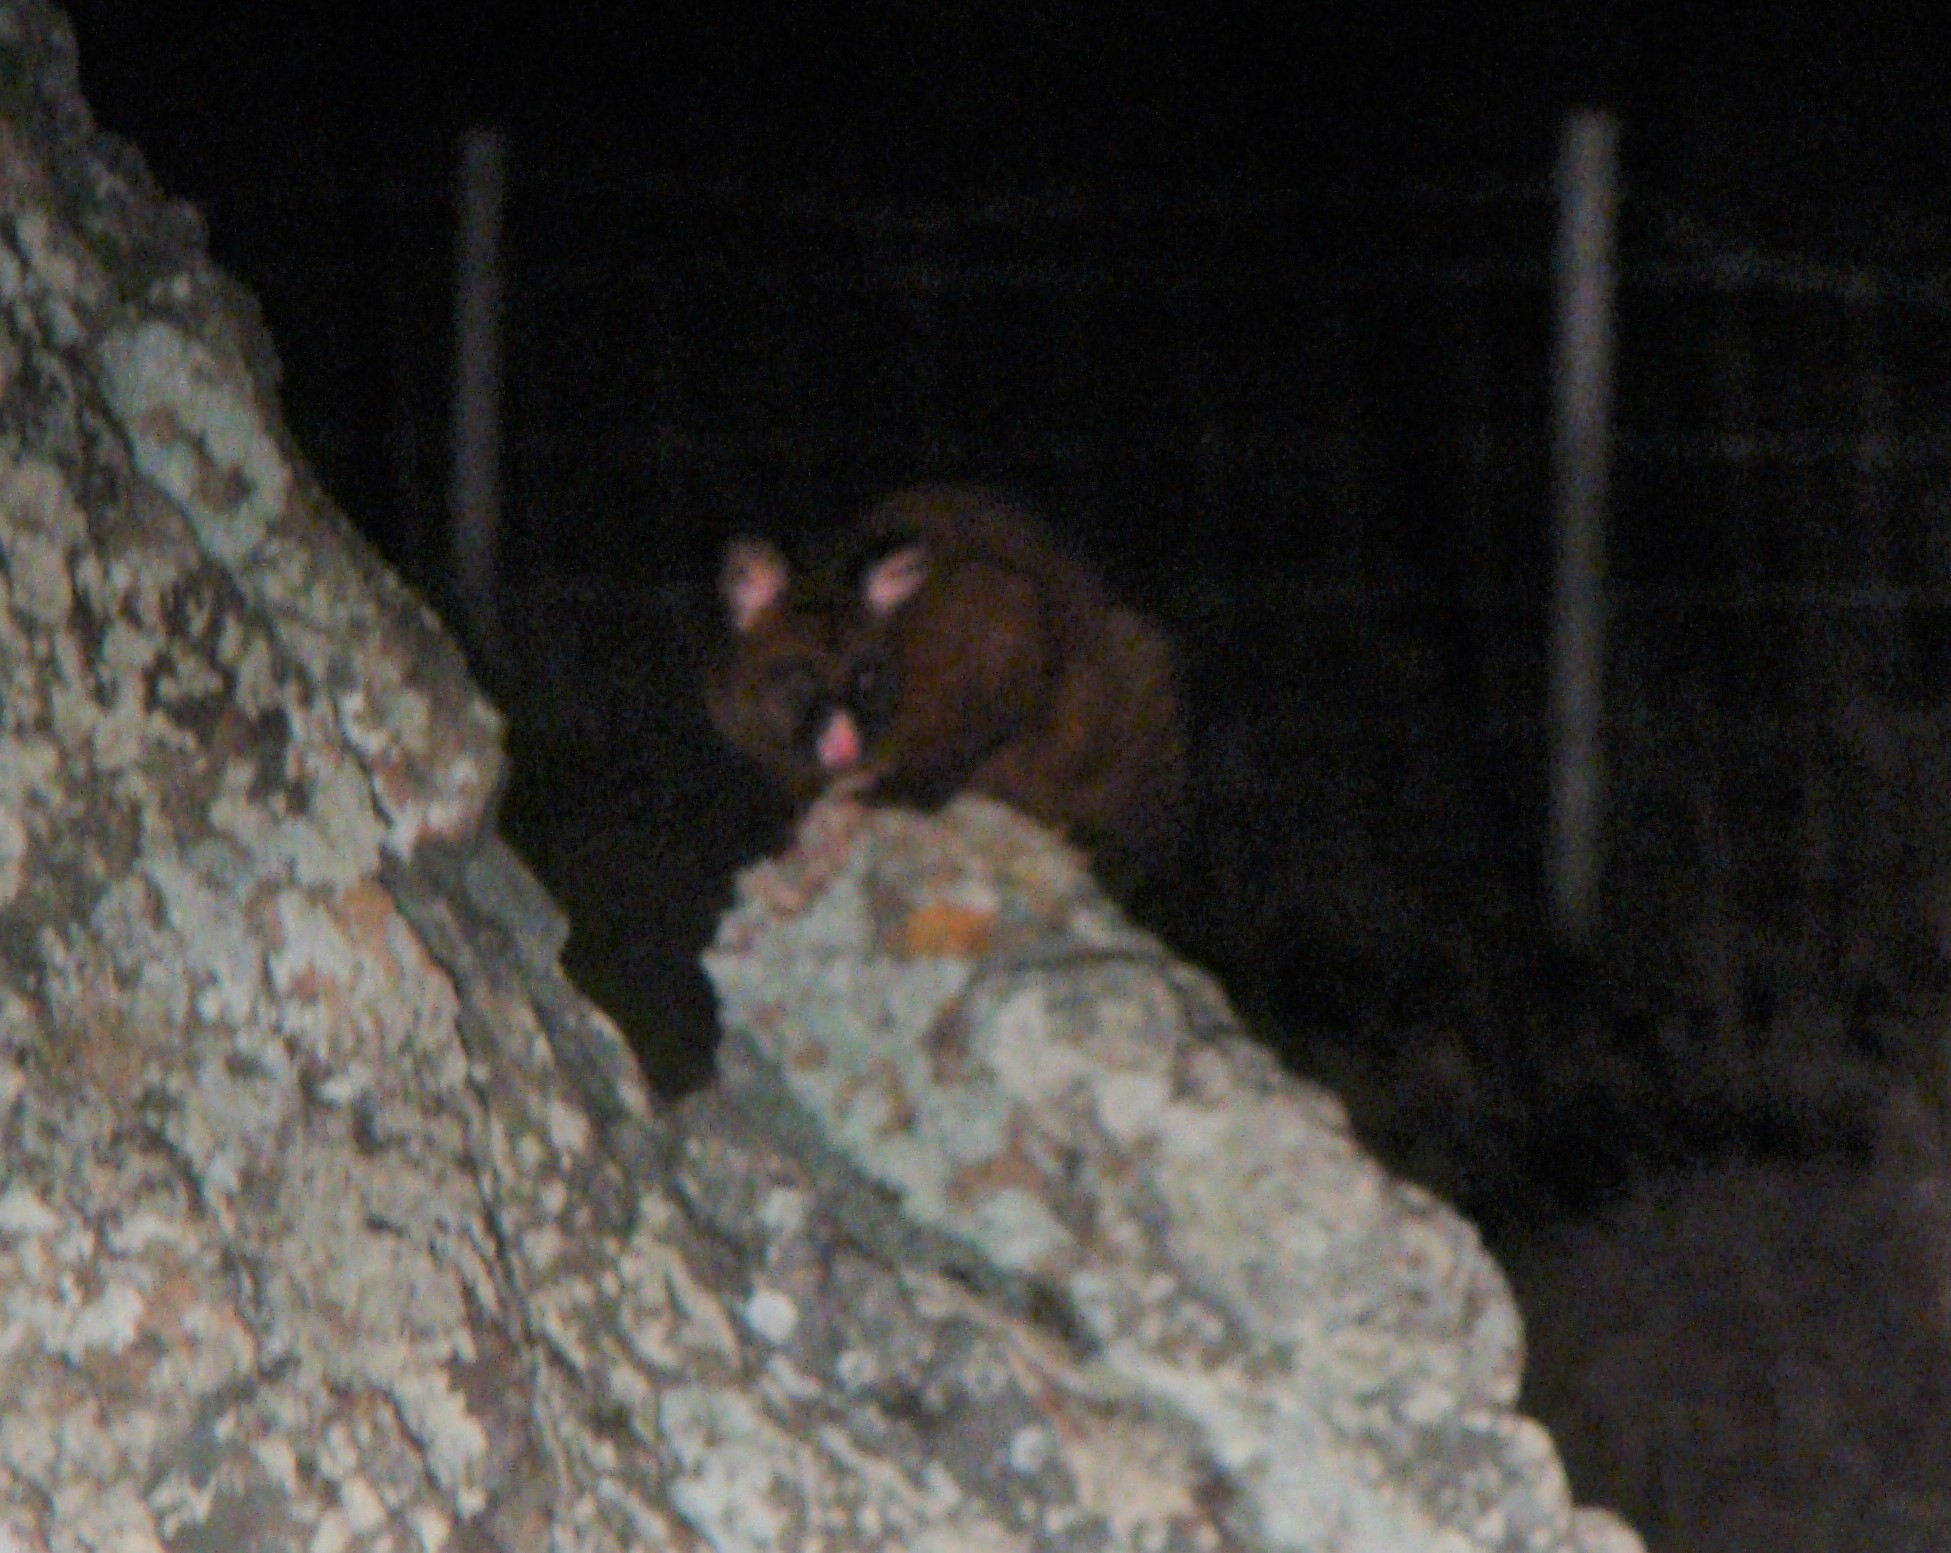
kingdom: Animalia
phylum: Chordata
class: Mammalia
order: Diprotodontia
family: Phalangeridae
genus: Trichosurus
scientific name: Trichosurus vulpecula
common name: Common brushtail
